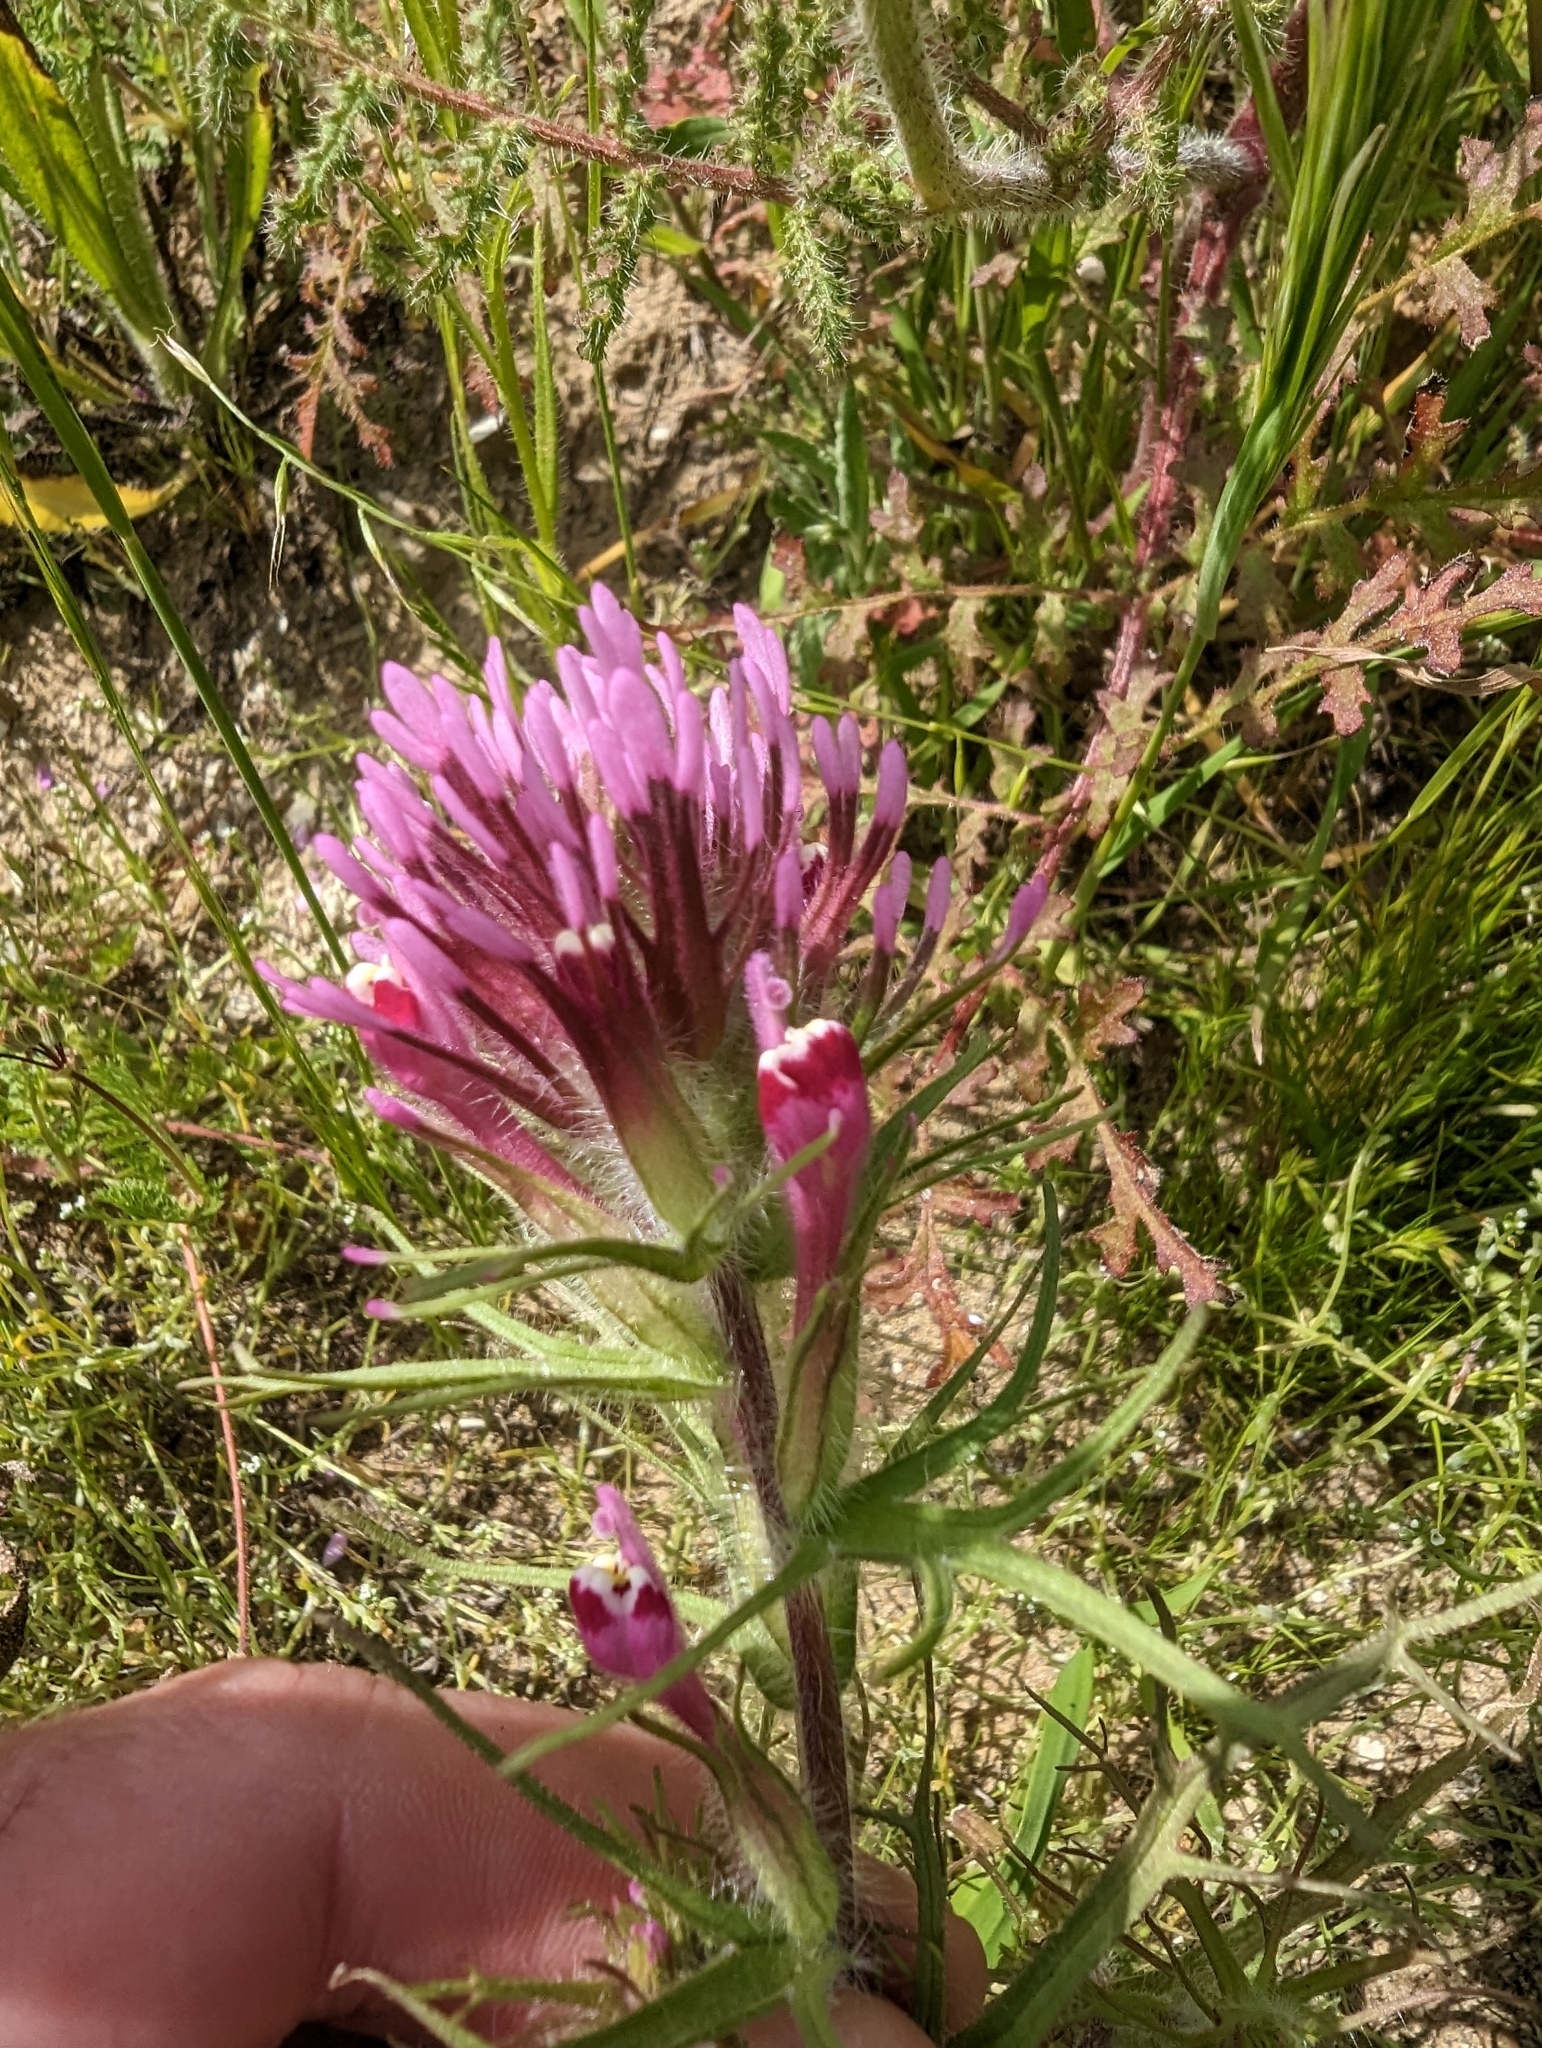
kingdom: Plantae
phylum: Tracheophyta
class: Magnoliopsida
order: Lamiales
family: Orobanchaceae
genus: Castilleja
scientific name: Castilleja exserta
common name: Purple owl-clover
